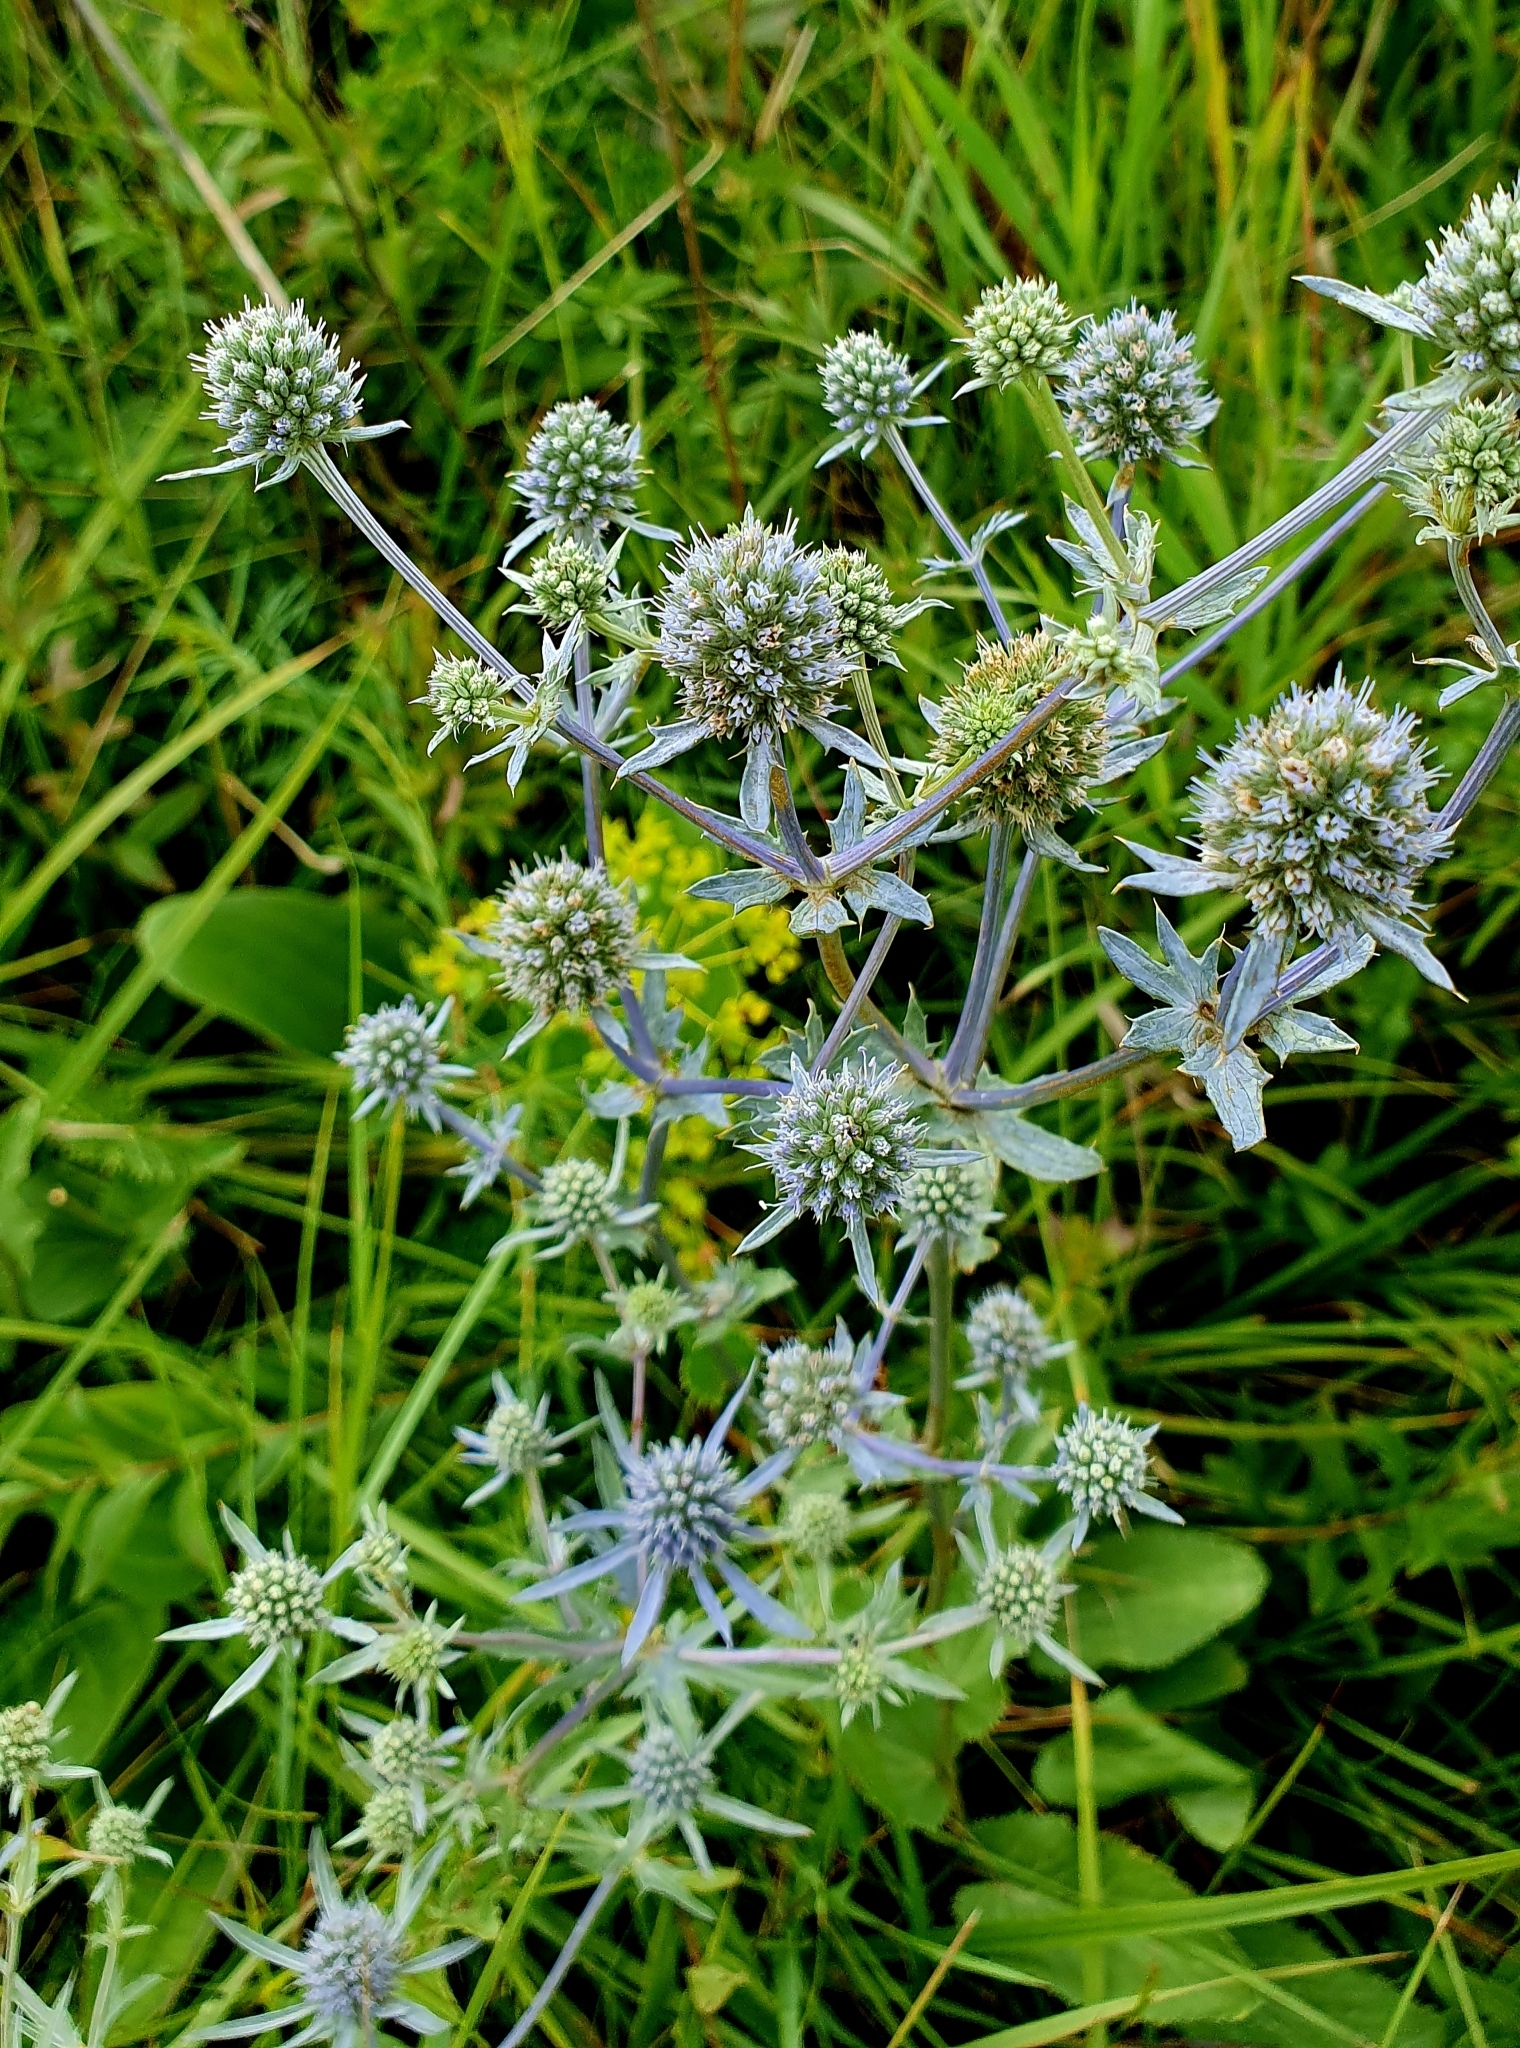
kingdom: Plantae
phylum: Tracheophyta
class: Magnoliopsida
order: Apiales
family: Apiaceae
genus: Eryngium
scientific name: Eryngium planum
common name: Blue eryngo
